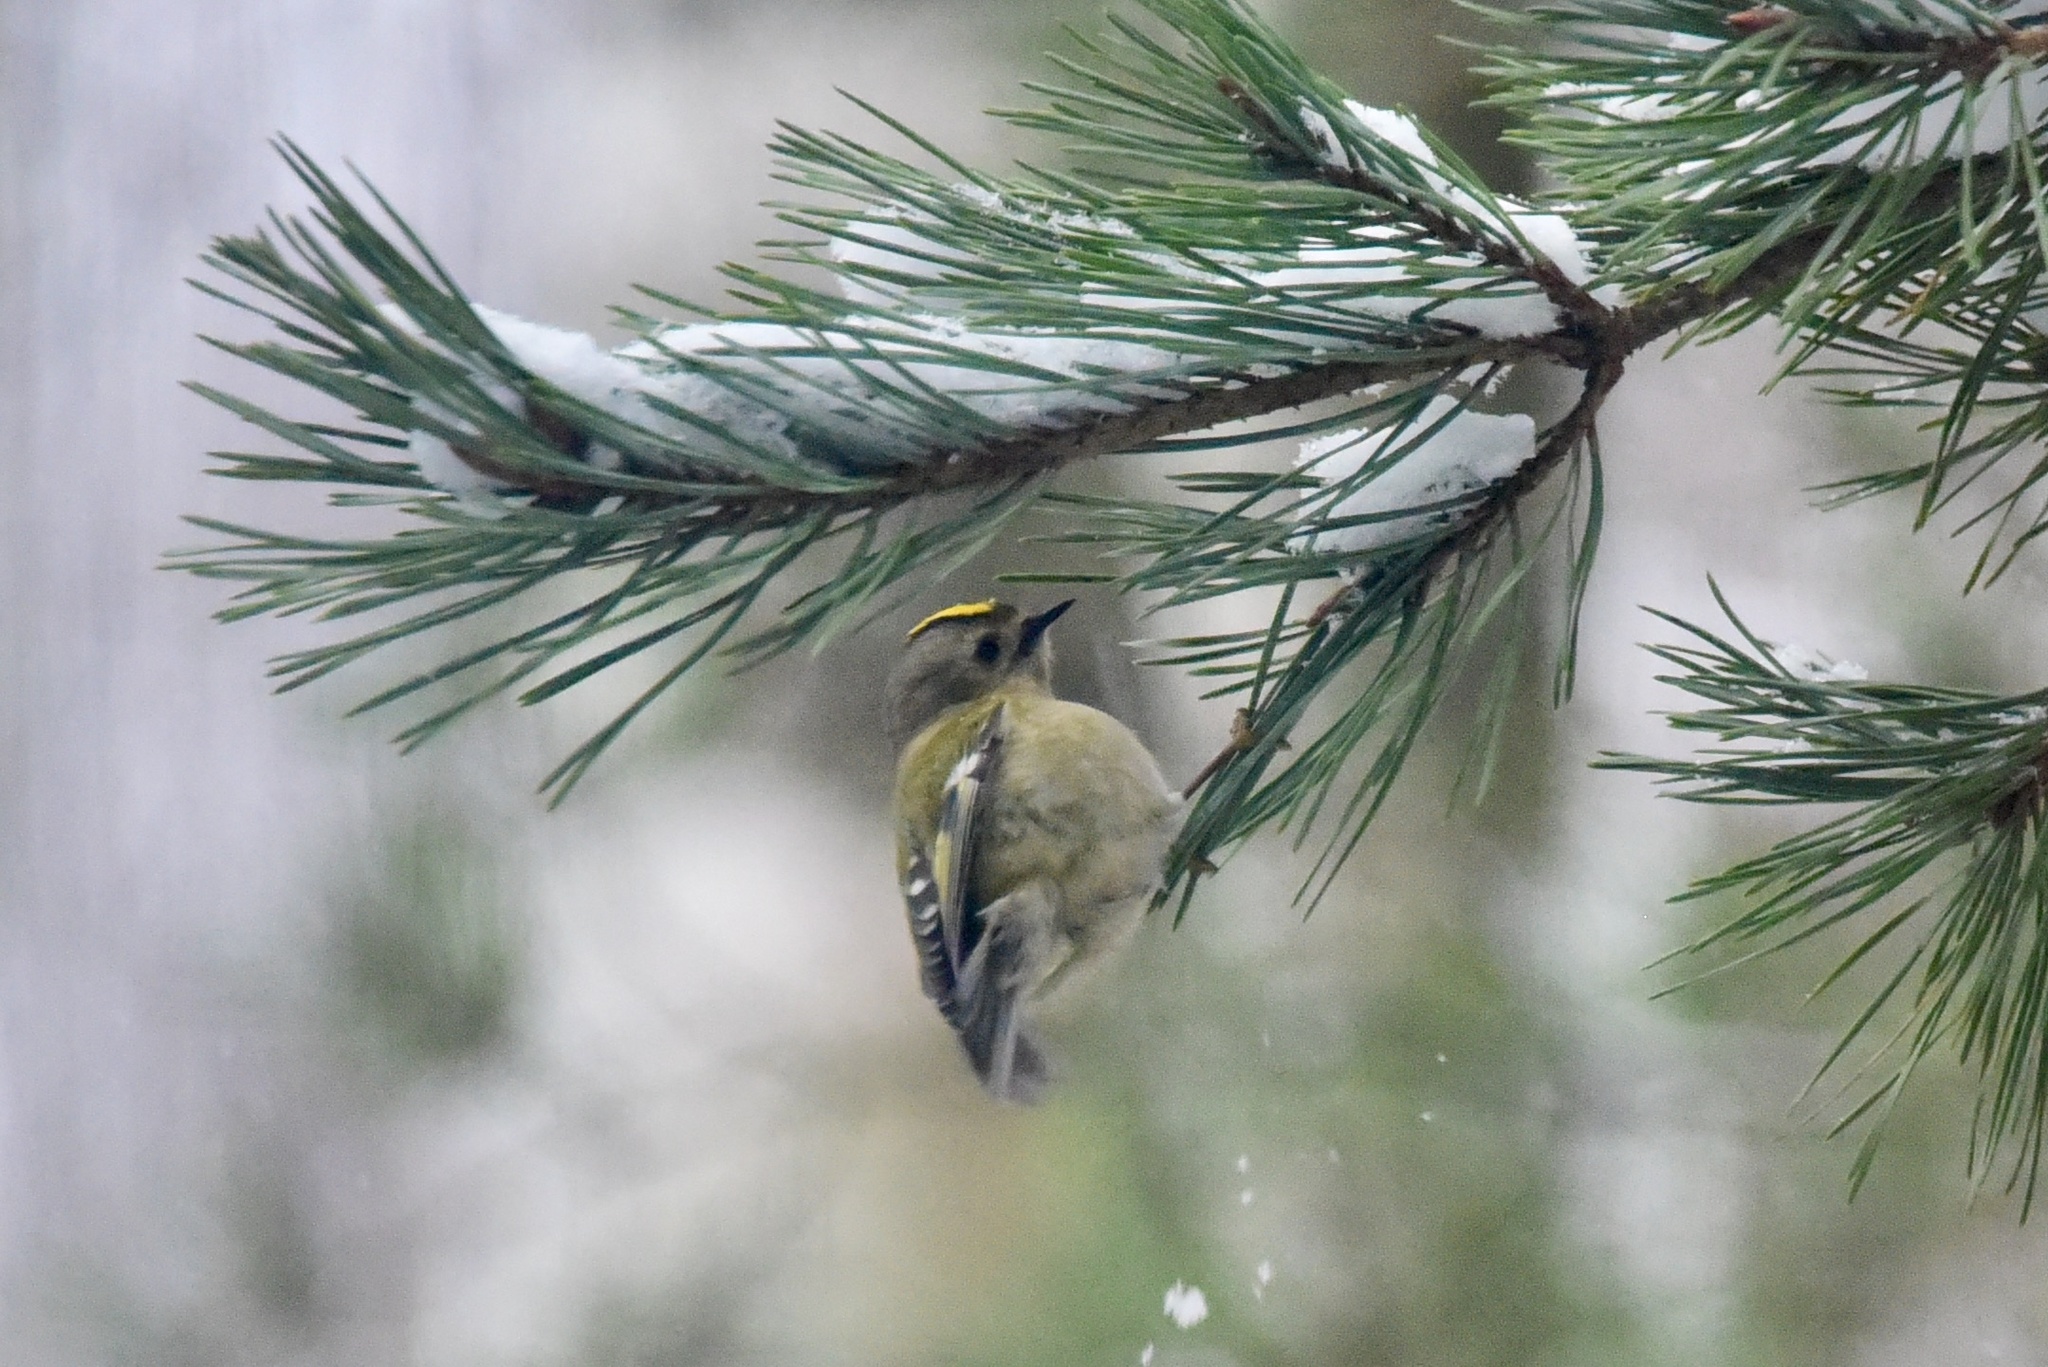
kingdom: Animalia
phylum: Chordata
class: Aves
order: Passeriformes
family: Regulidae
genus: Regulus
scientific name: Regulus regulus
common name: Goldcrest
